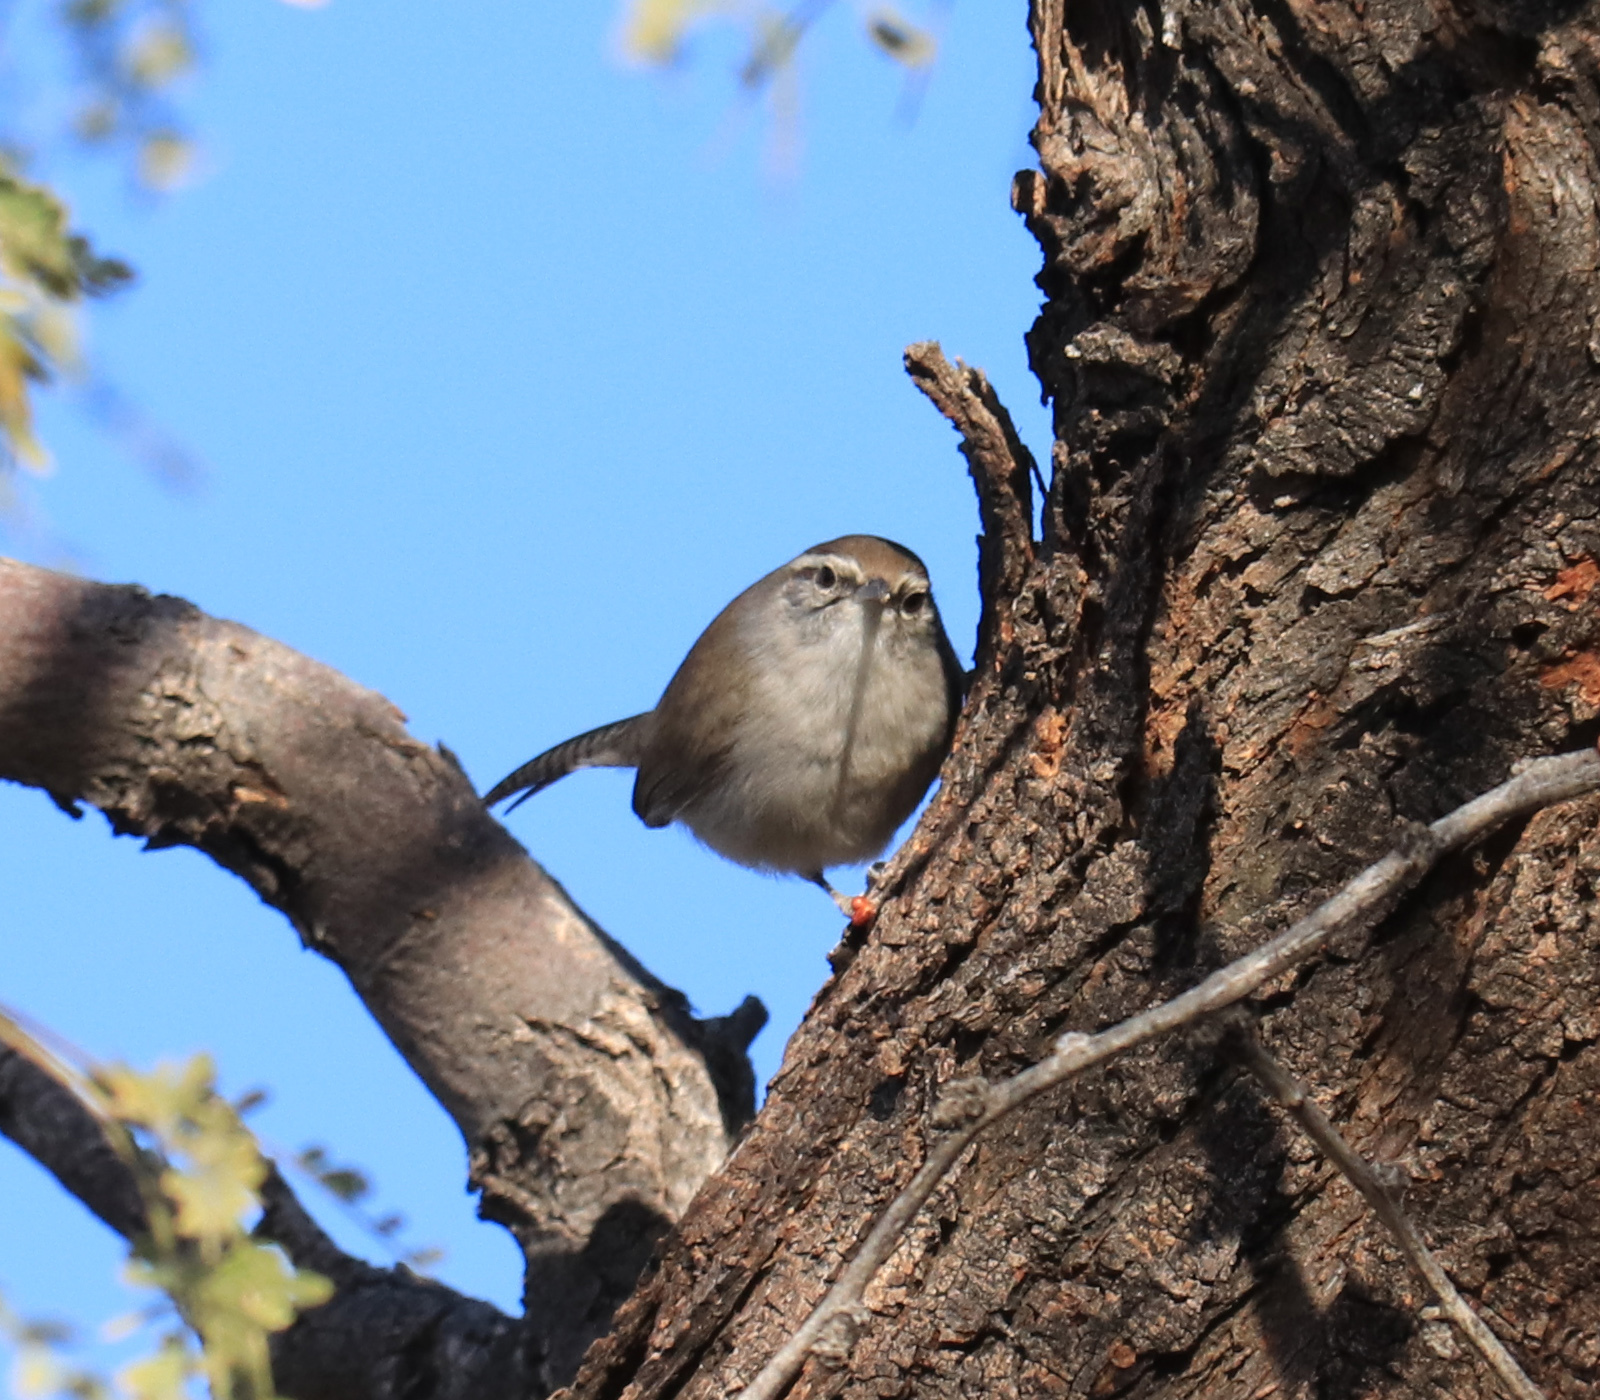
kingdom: Animalia
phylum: Chordata
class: Aves
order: Passeriformes
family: Troglodytidae
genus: Thryomanes
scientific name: Thryomanes bewickii
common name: Bewick's wren
